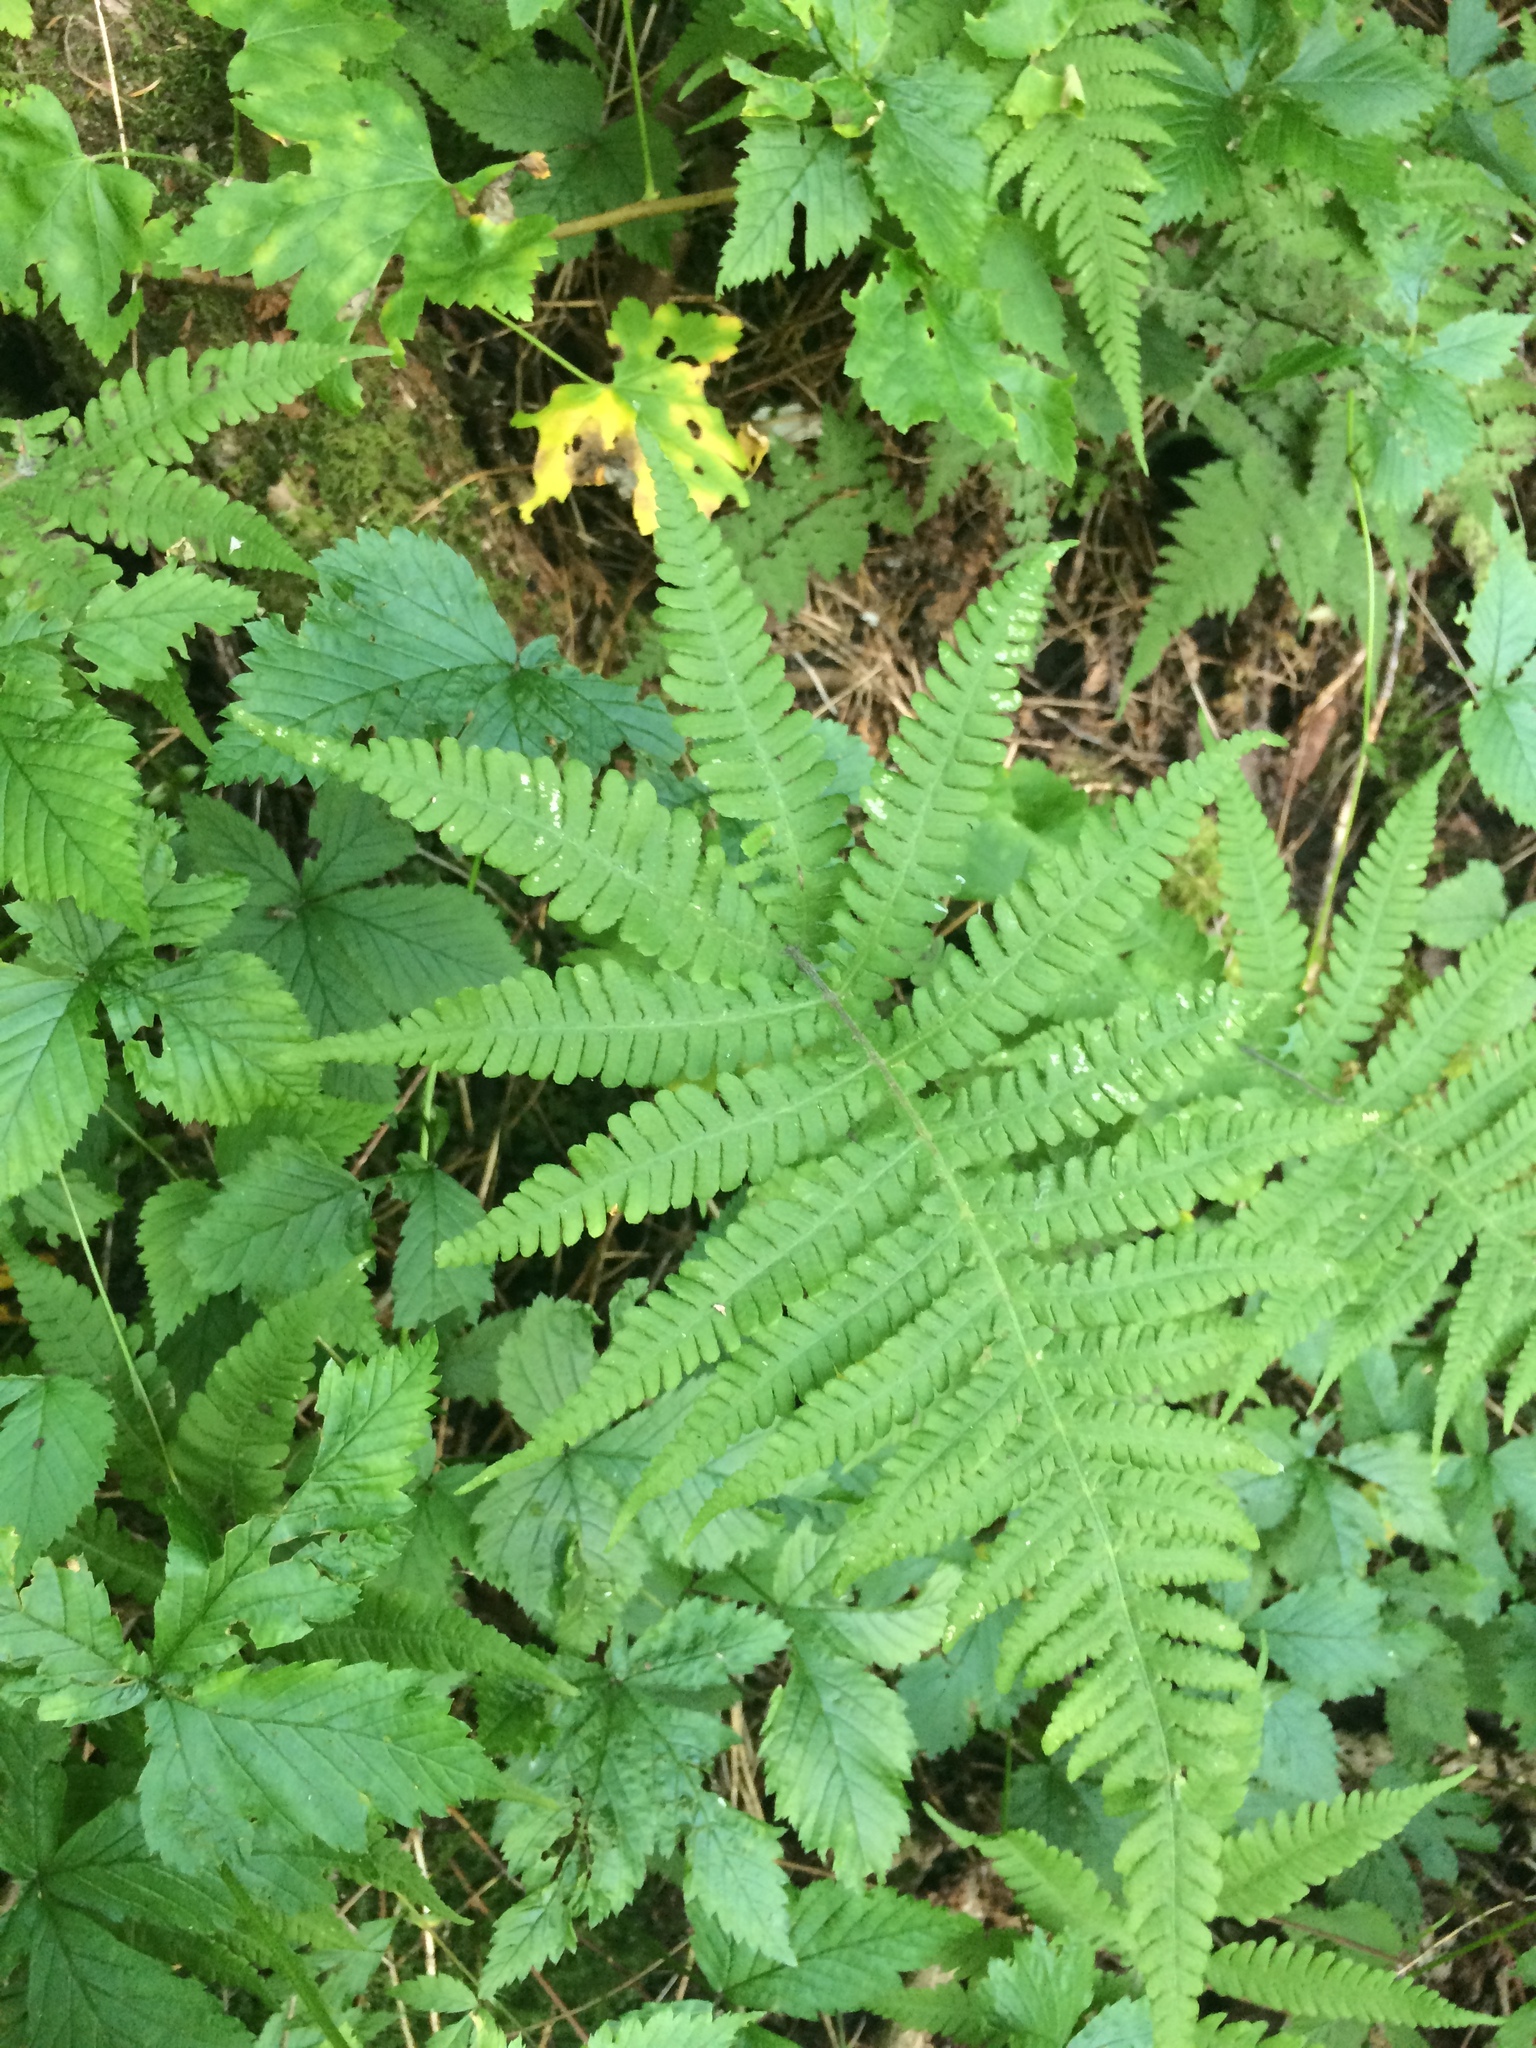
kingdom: Plantae
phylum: Tracheophyta
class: Polypodiopsida
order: Polypodiales
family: Thelypteridaceae
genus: Phegopteris
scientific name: Phegopteris connectilis
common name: Beech fern
